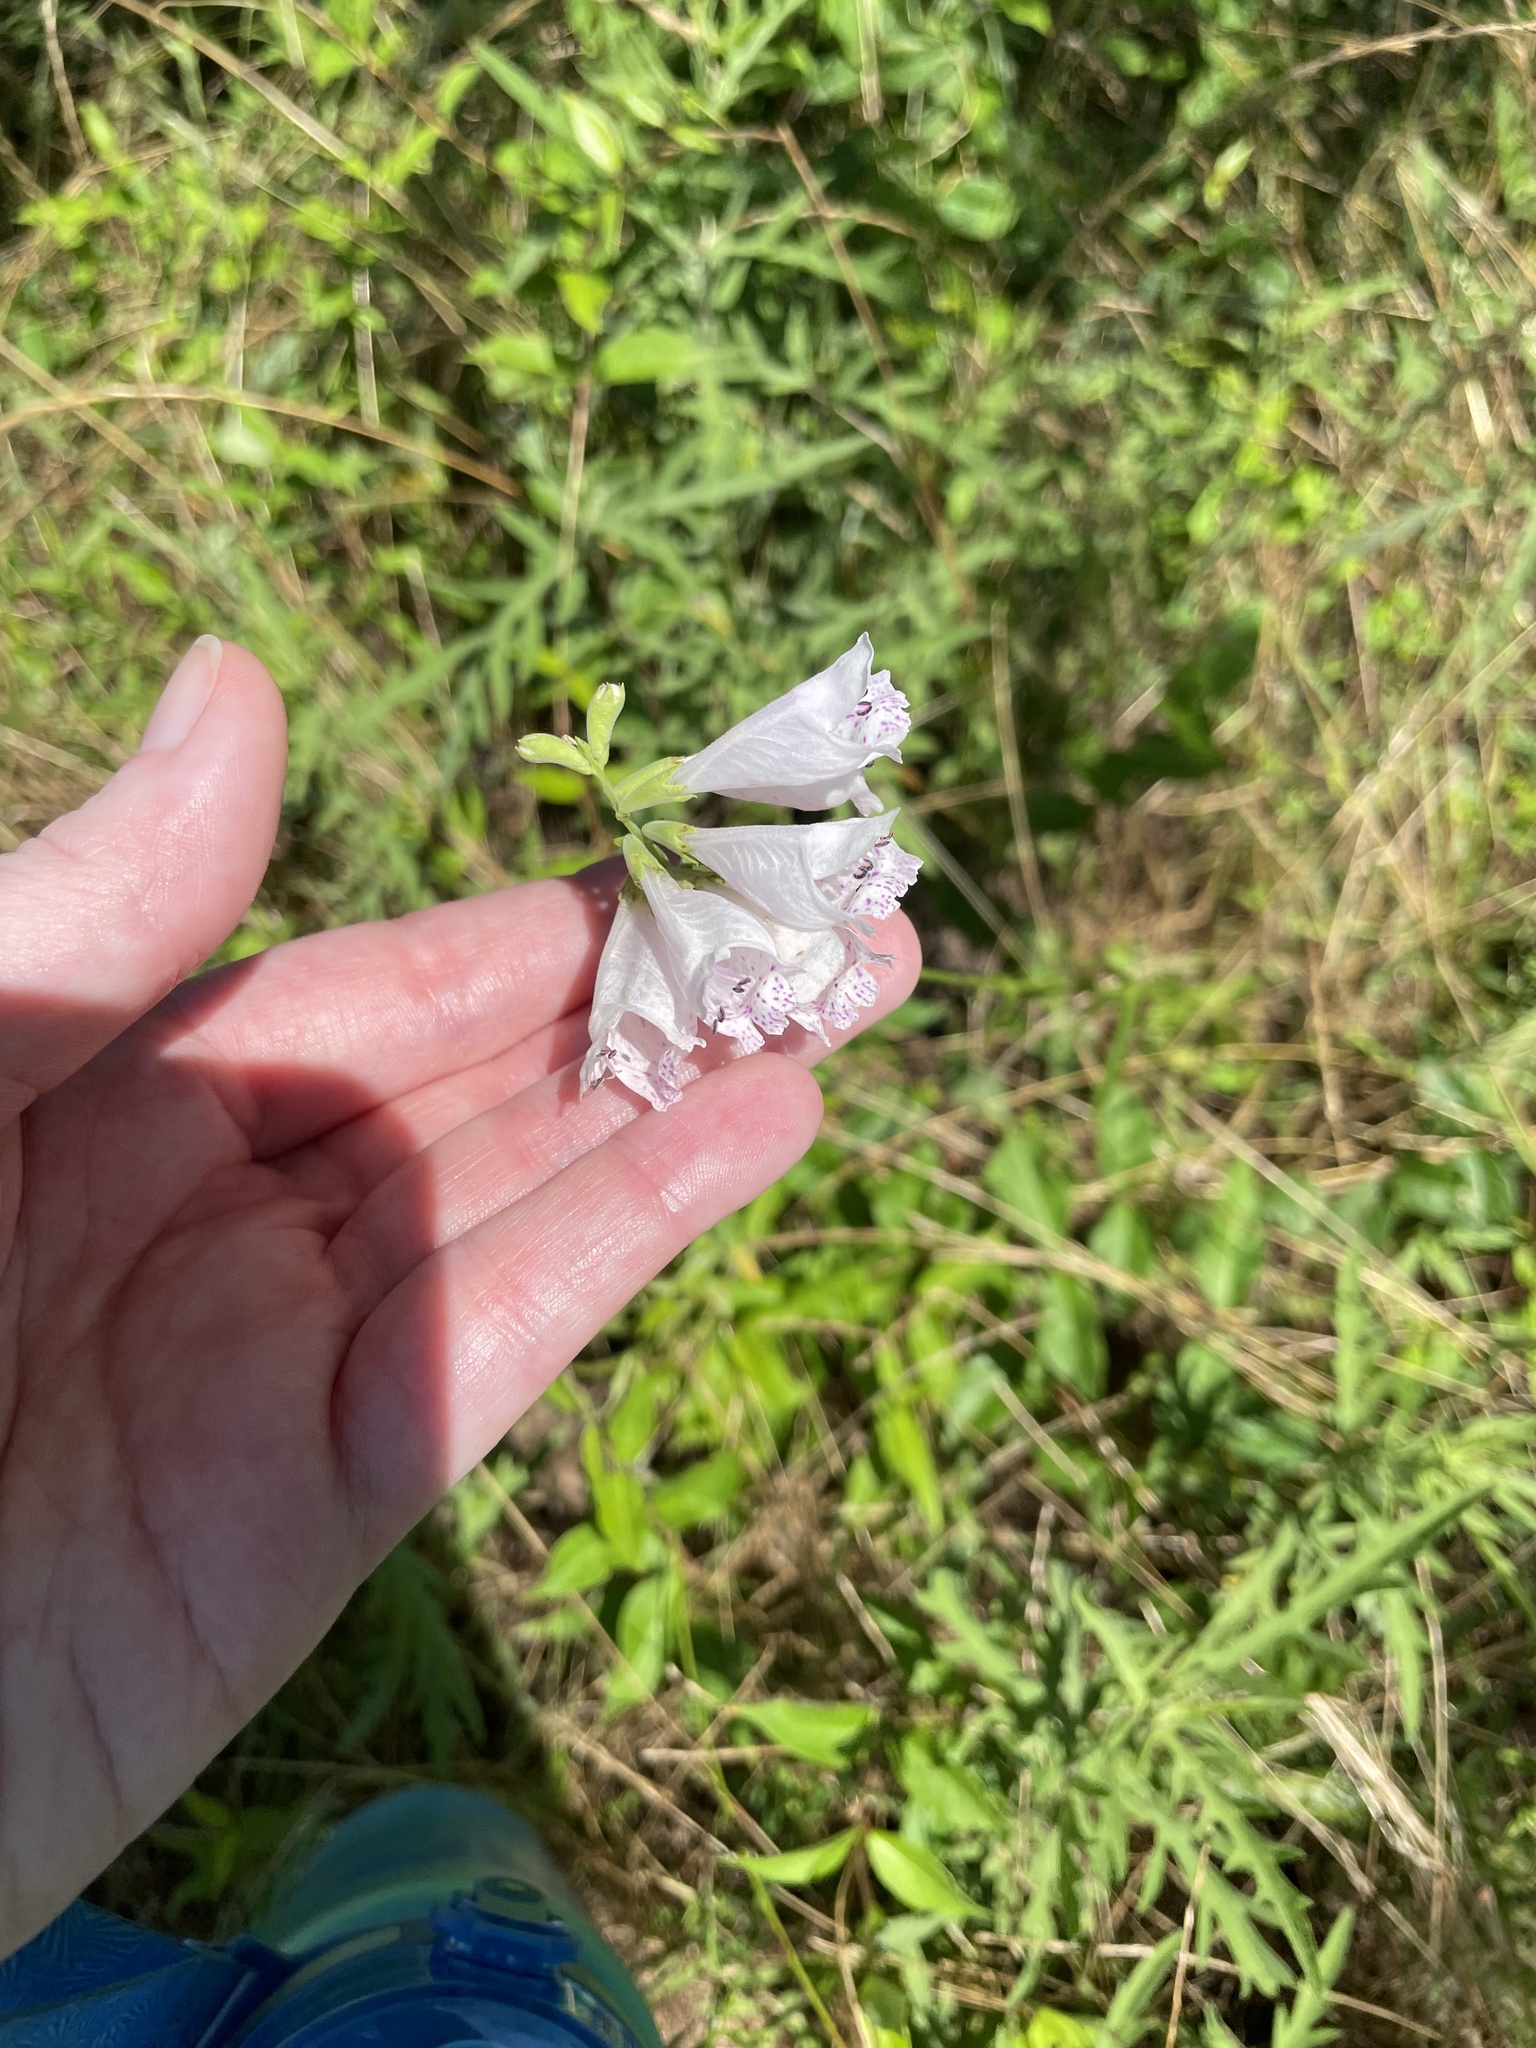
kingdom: Plantae
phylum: Tracheophyta
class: Magnoliopsida
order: Lamiales
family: Lamiaceae
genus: Physostegia
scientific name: Physostegia angustifolia
